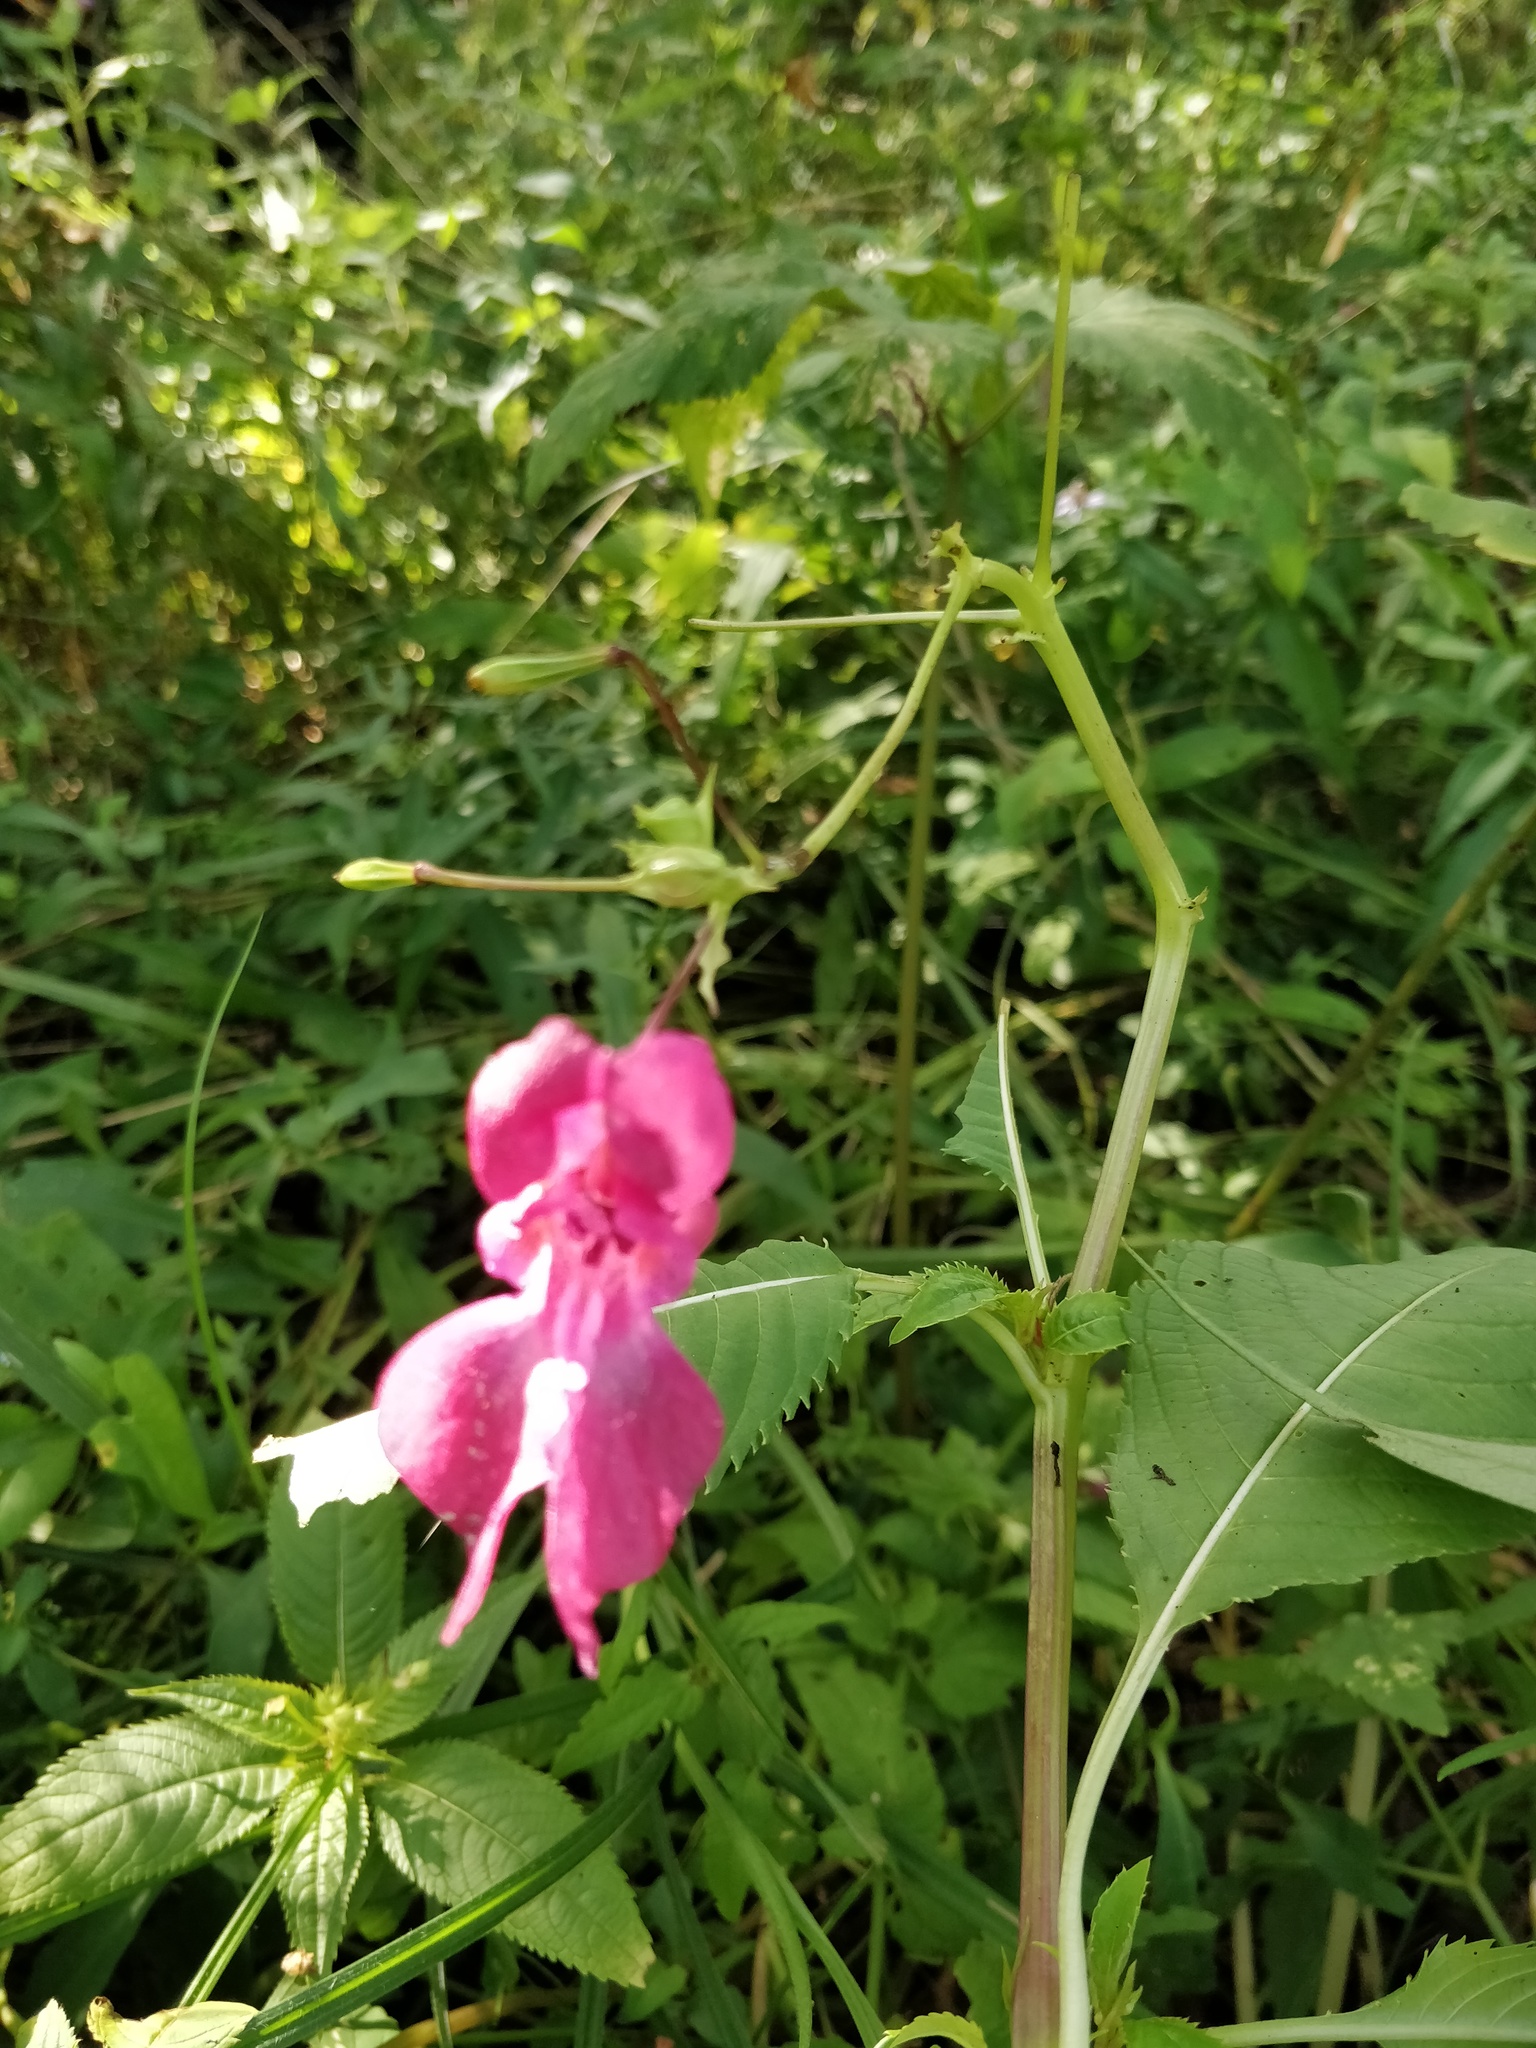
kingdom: Plantae
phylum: Tracheophyta
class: Magnoliopsida
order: Ericales
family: Balsaminaceae
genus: Impatiens
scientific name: Impatiens glandulifera
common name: Himalayan balsam
